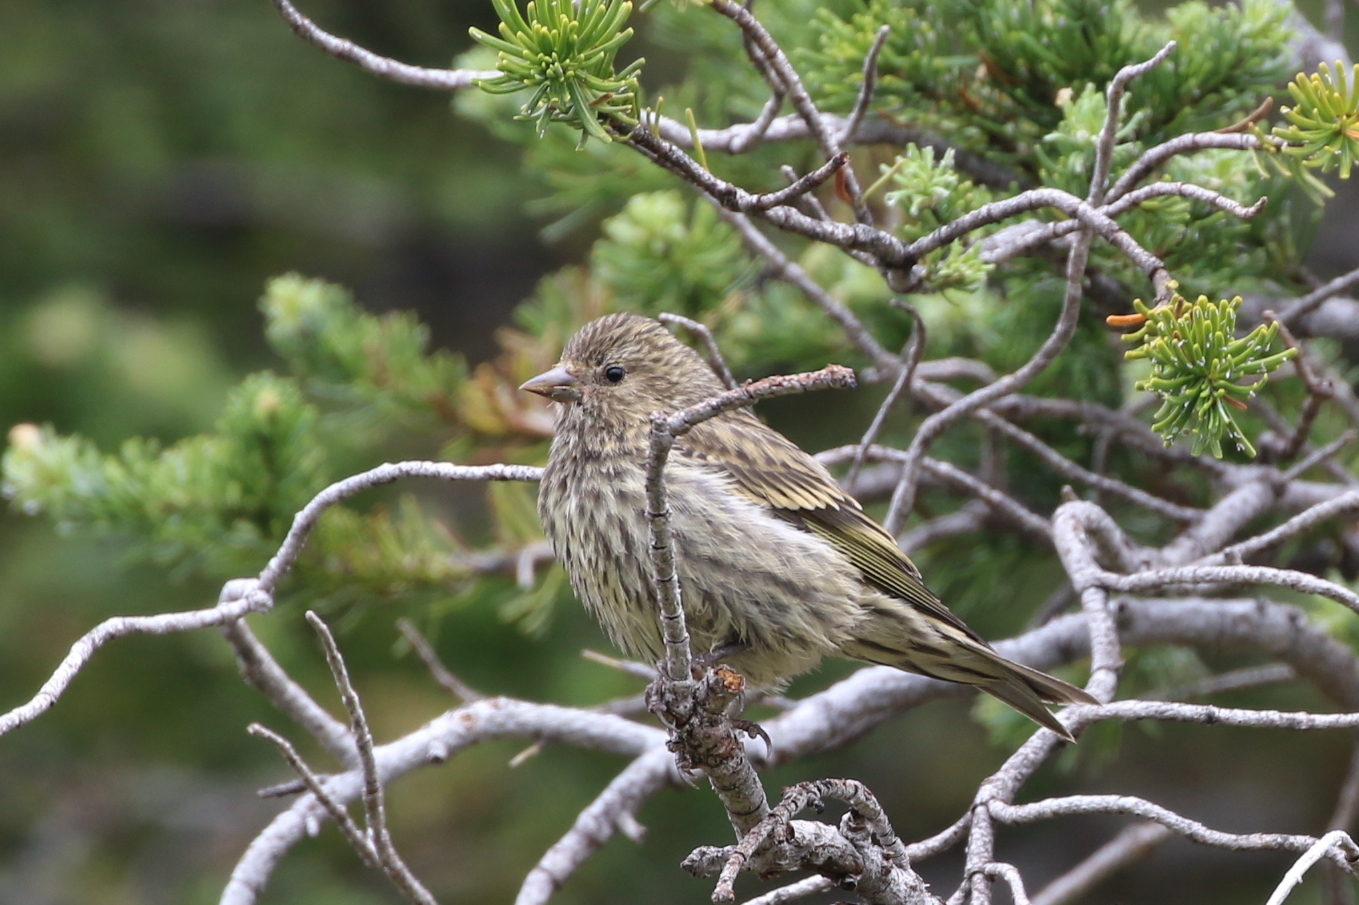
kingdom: Animalia
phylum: Chordata
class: Aves
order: Passeriformes
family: Fringillidae
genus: Spinus
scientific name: Spinus pinus
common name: Pine siskin
